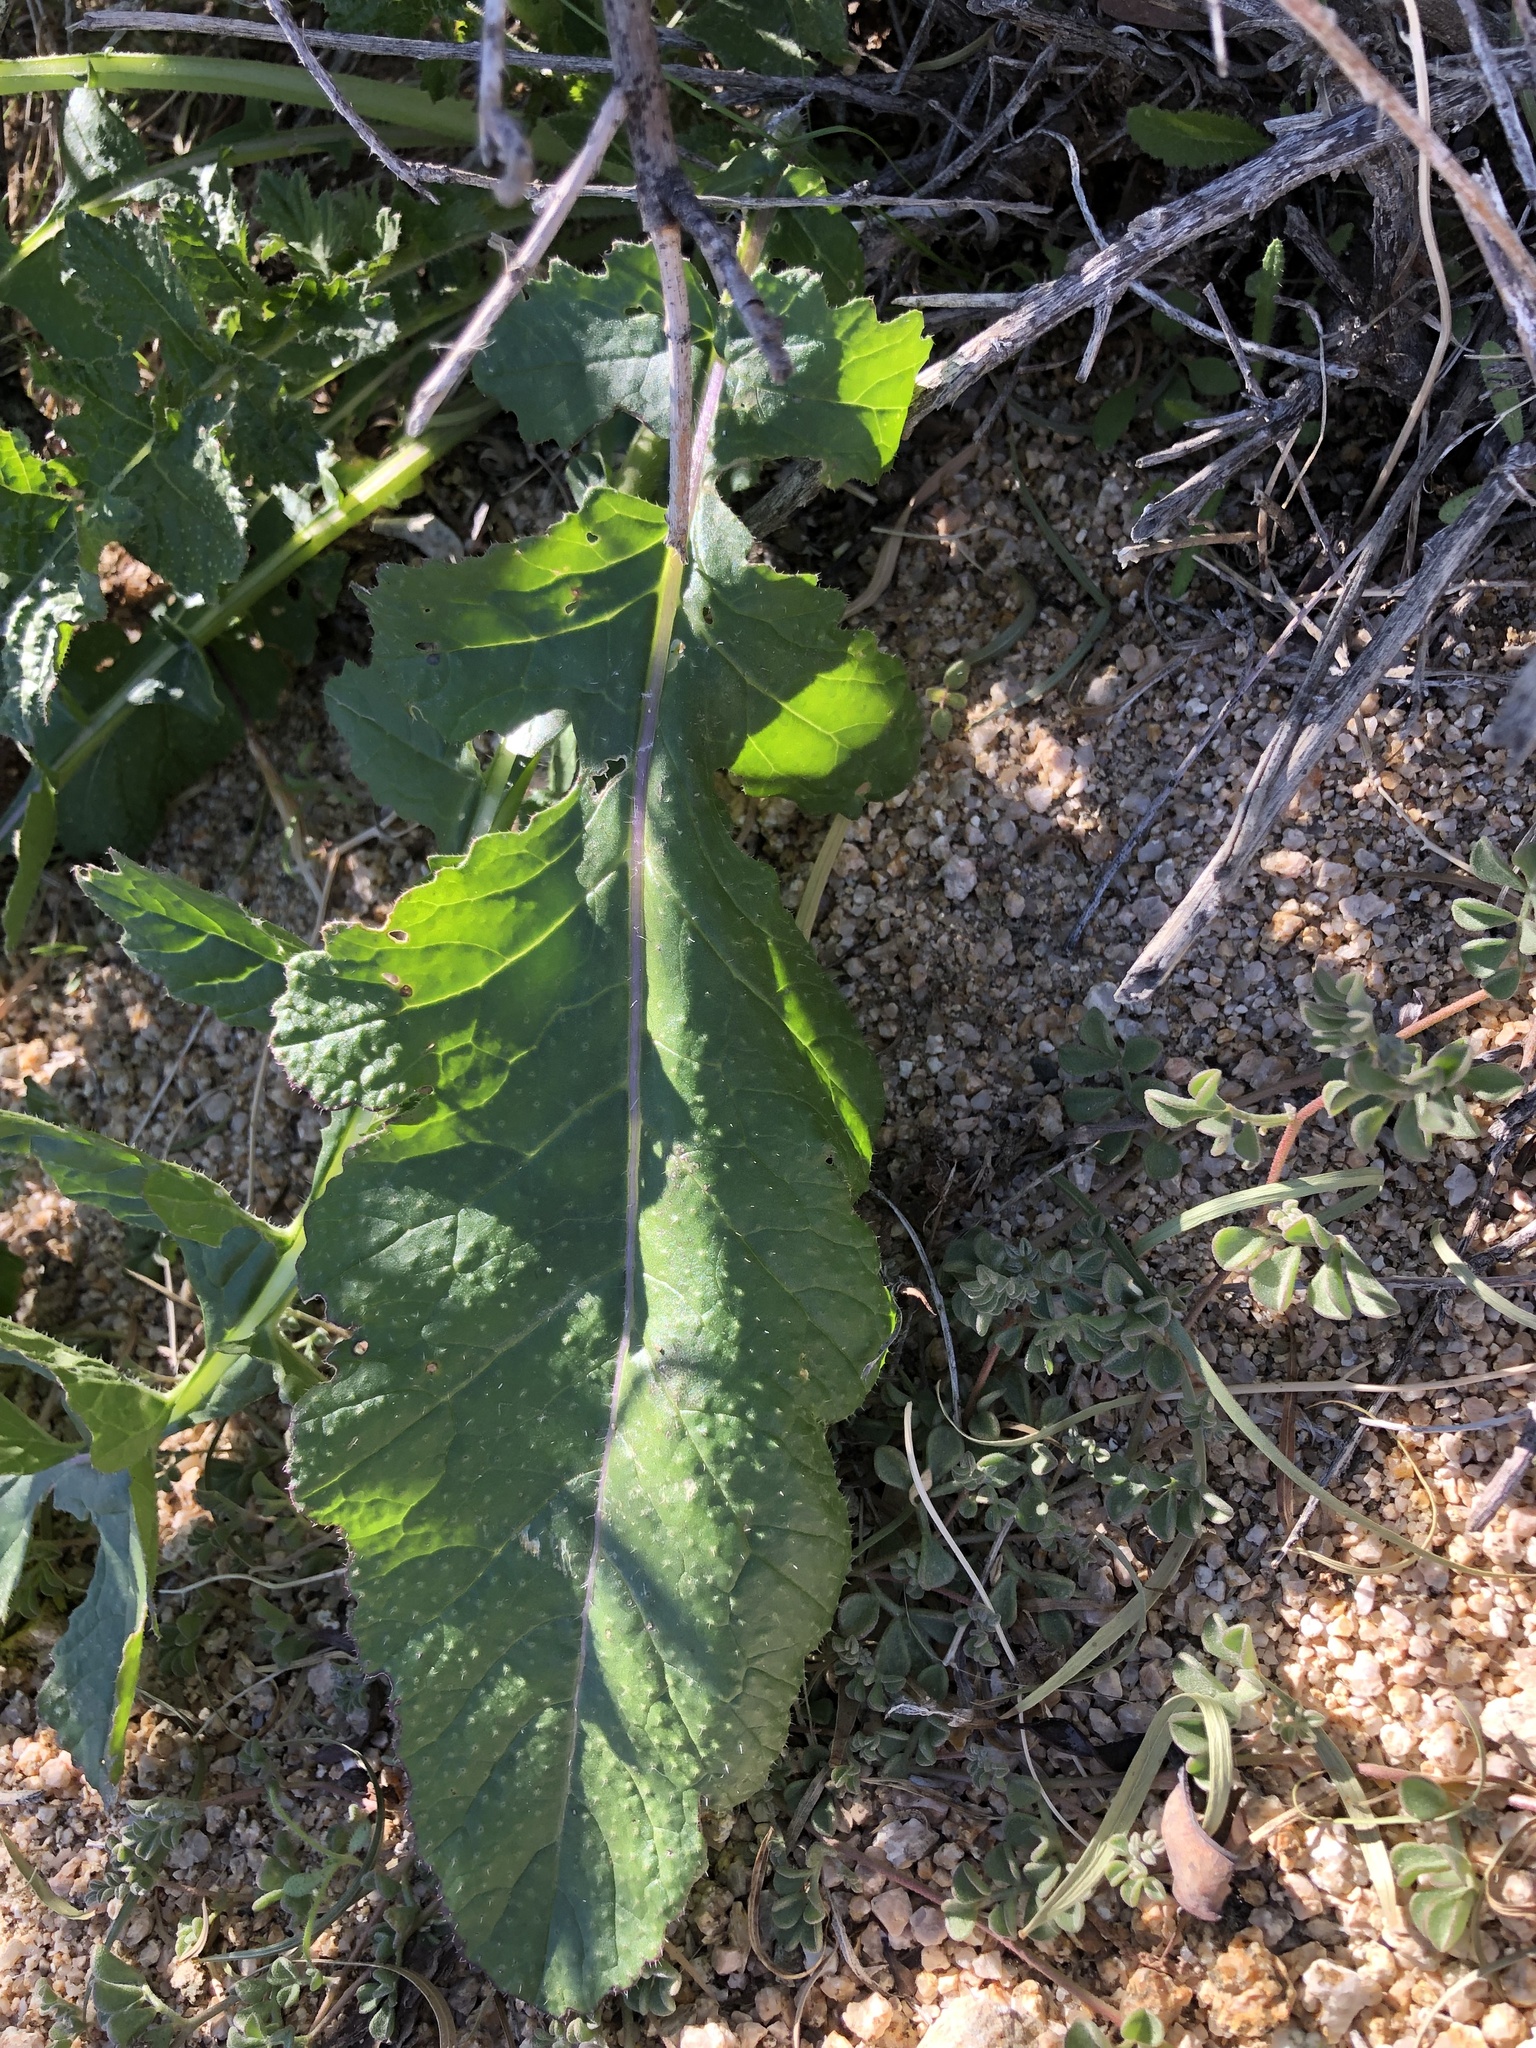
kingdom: Plantae
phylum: Tracheophyta
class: Magnoliopsida
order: Brassicales
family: Brassicaceae
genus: Brassica
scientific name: Brassica tournefortii
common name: Pale cabbage
